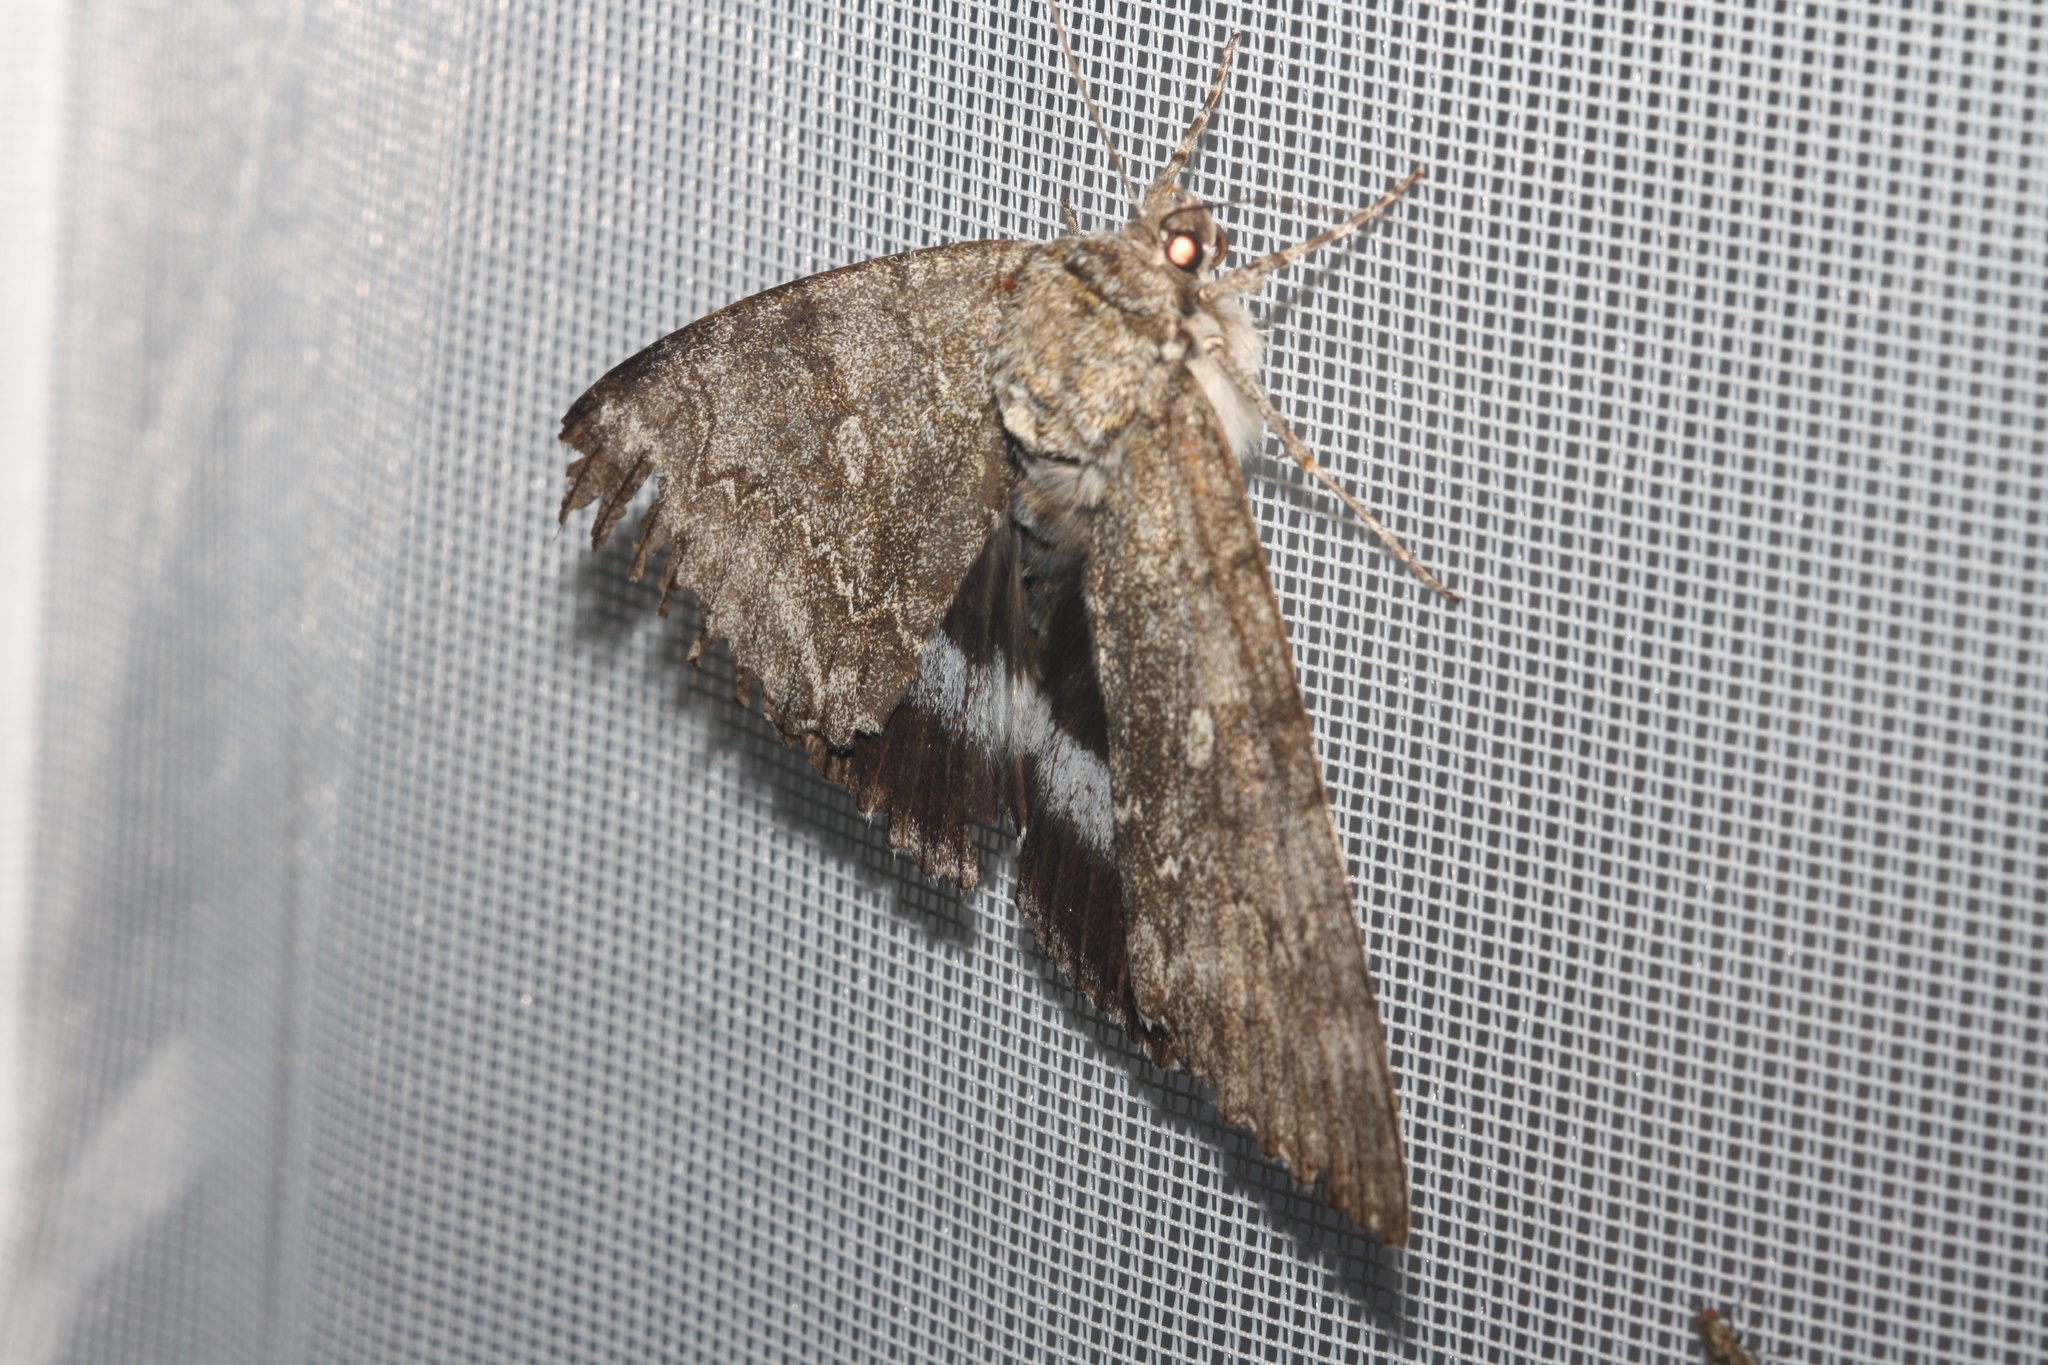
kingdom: Animalia
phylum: Arthropoda
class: Insecta
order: Lepidoptera
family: Erebidae
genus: Catocala
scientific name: Catocala fraxini
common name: Clifden nonpareil
